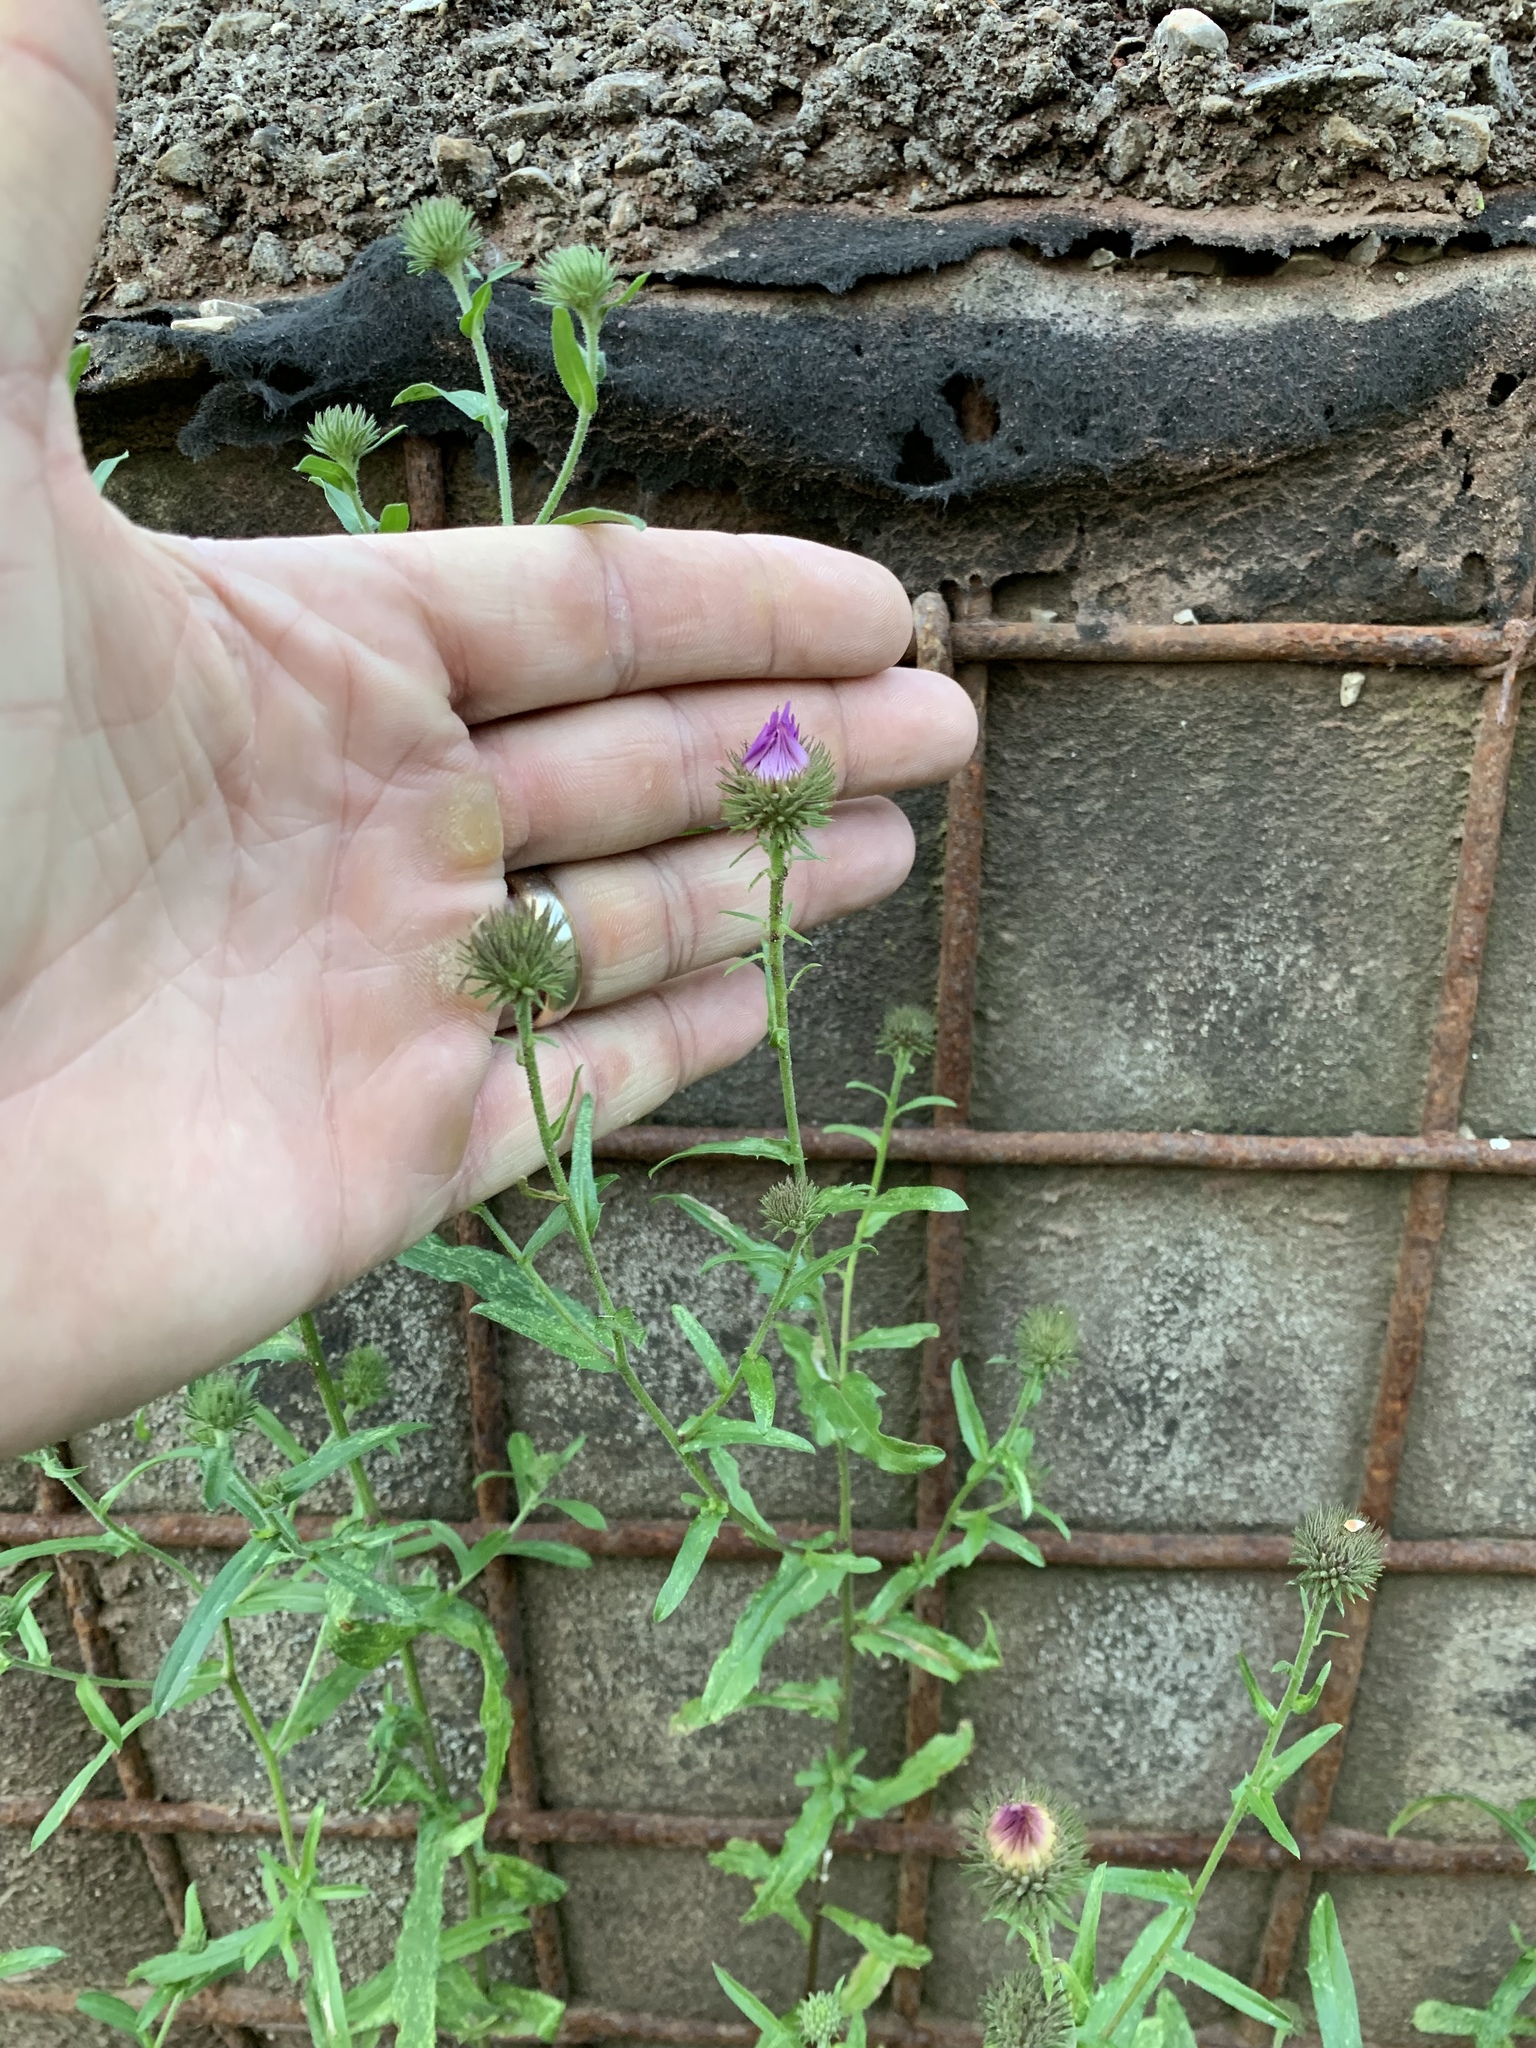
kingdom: Plantae
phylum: Tracheophyta
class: Magnoliopsida
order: Asterales
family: Asteraceae
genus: Dieteria
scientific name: Dieteria bigelovii
